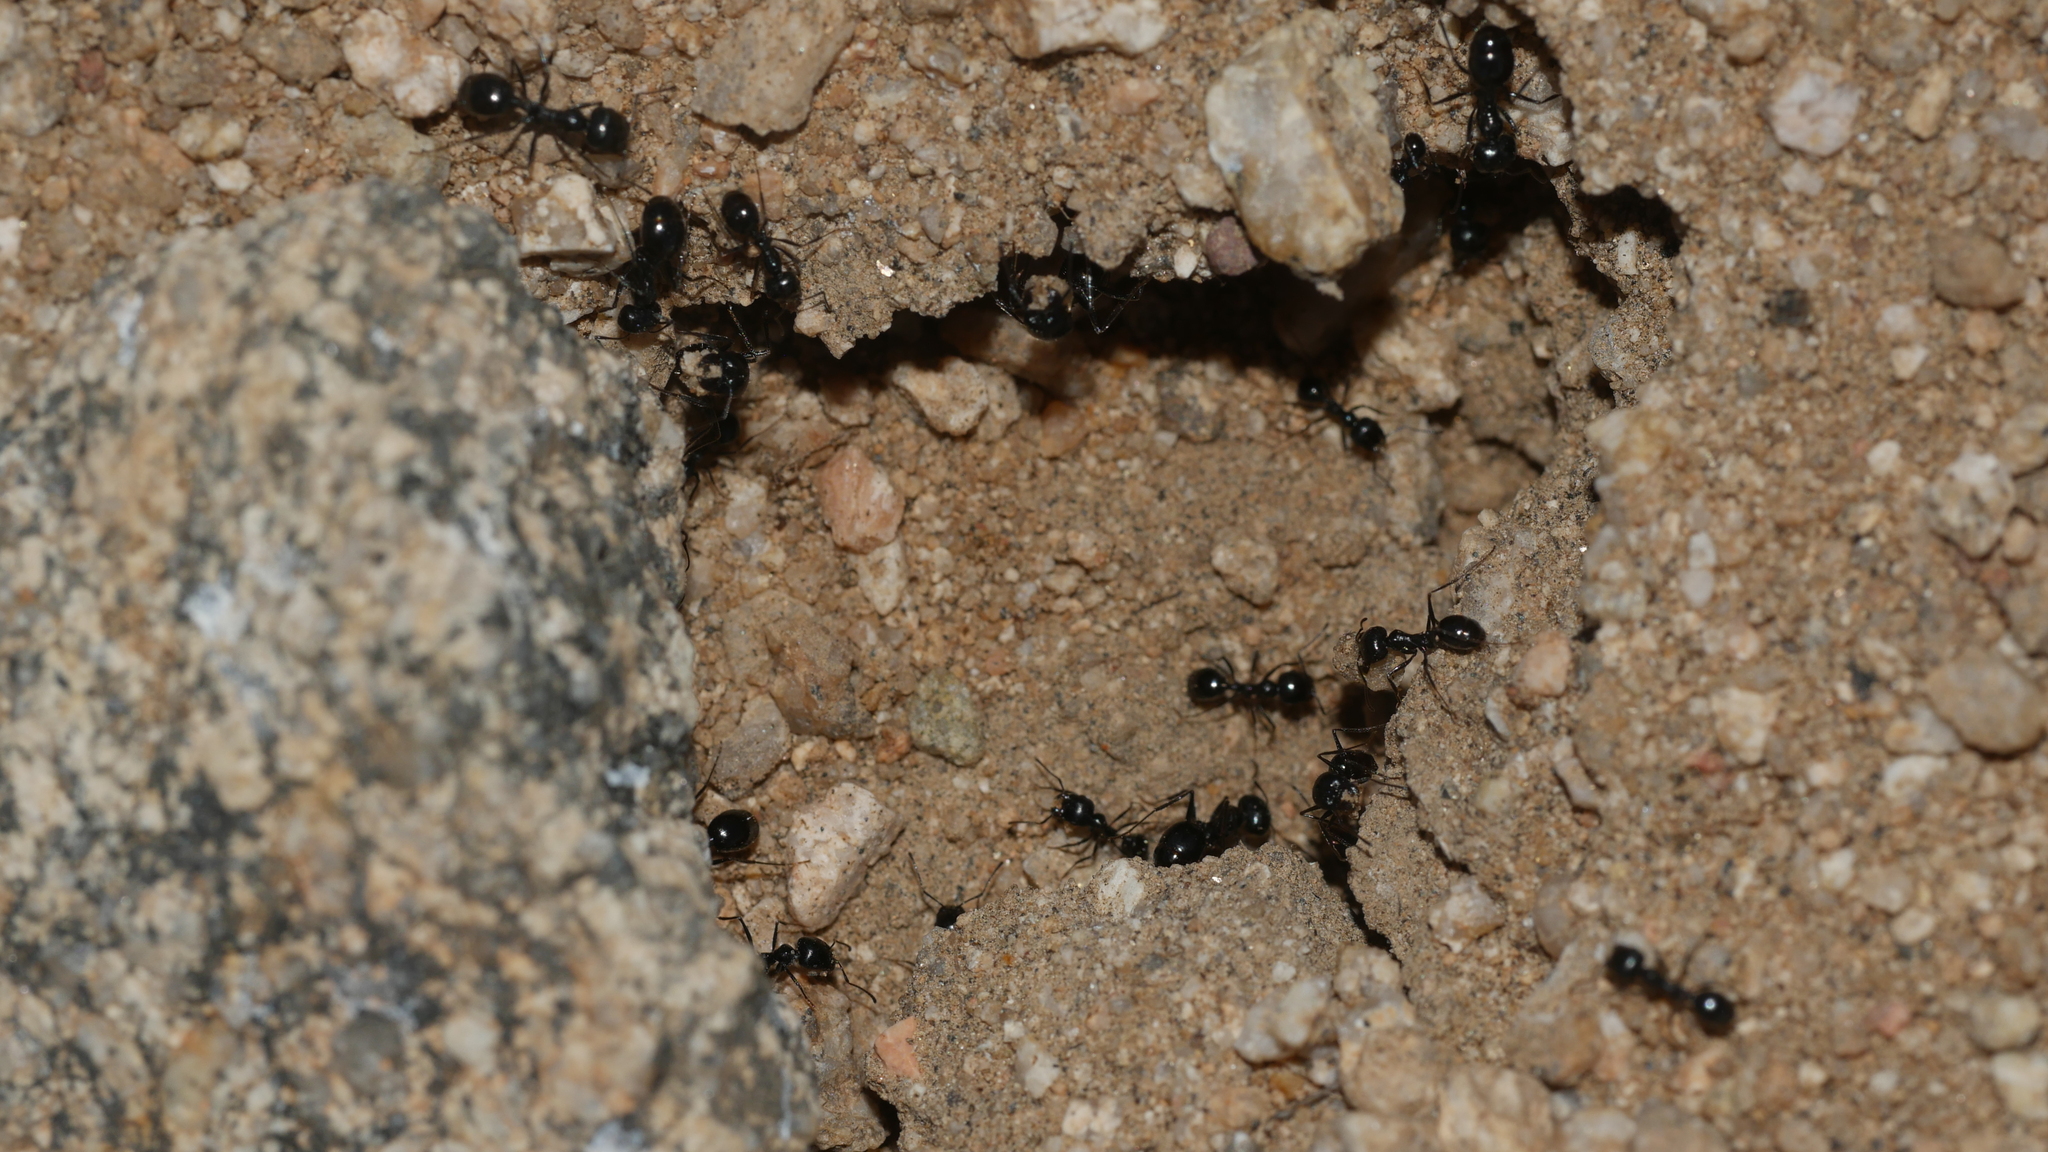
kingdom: Animalia
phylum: Arthropoda
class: Insecta
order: Hymenoptera
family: Formicidae
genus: Messor
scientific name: Messor pergandei
